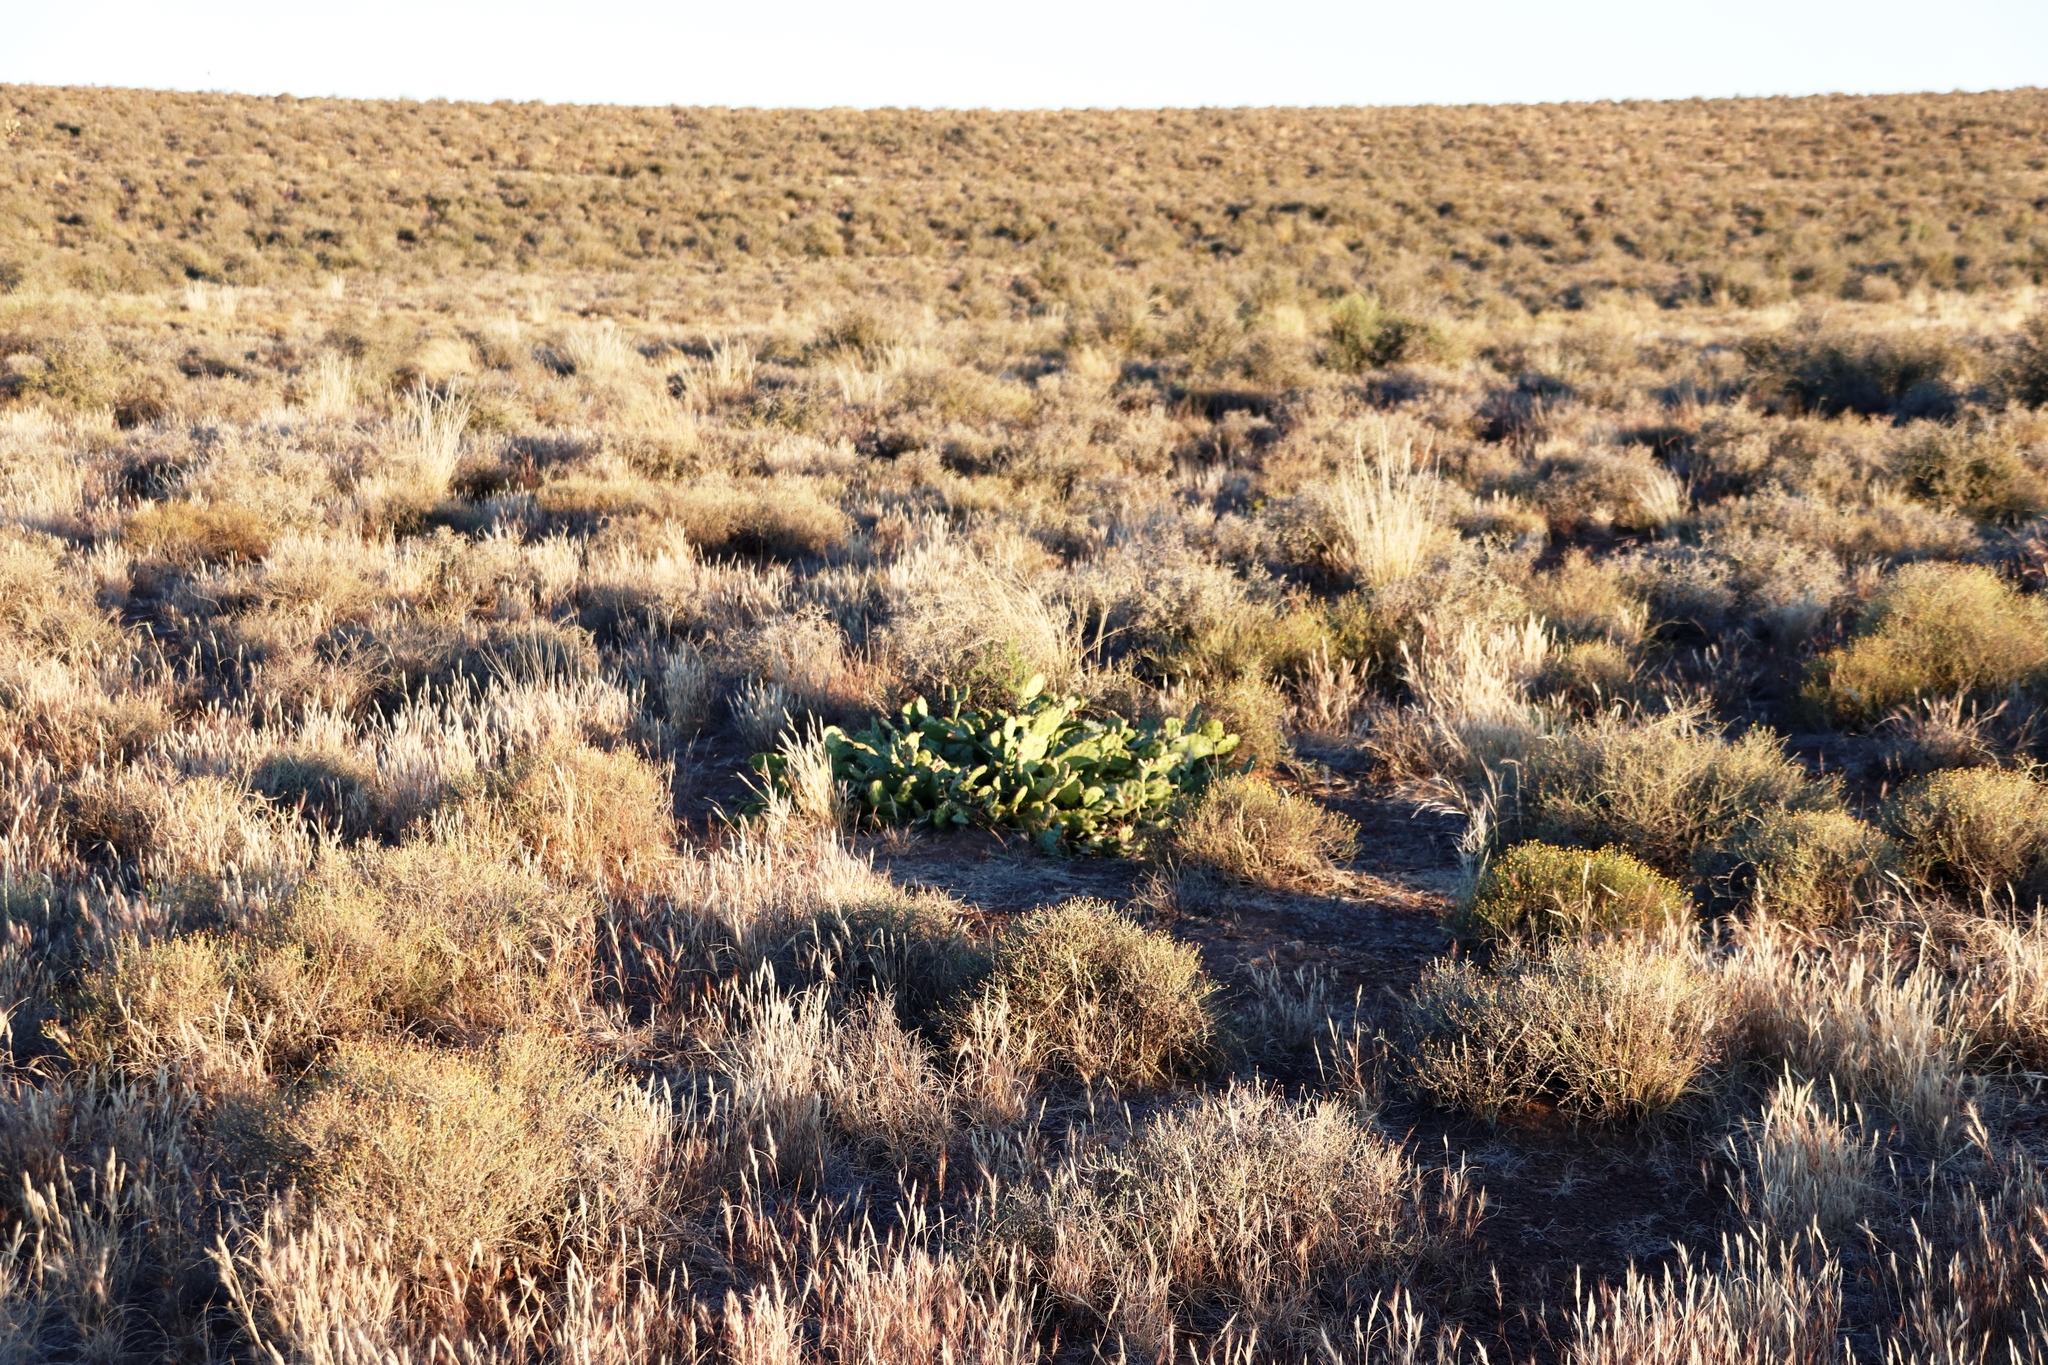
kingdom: Plantae
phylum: Tracheophyta
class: Magnoliopsida
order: Caryophyllales
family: Cactaceae
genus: Opuntia
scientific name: Opuntia humifusa
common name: Eastern prickly-pear
